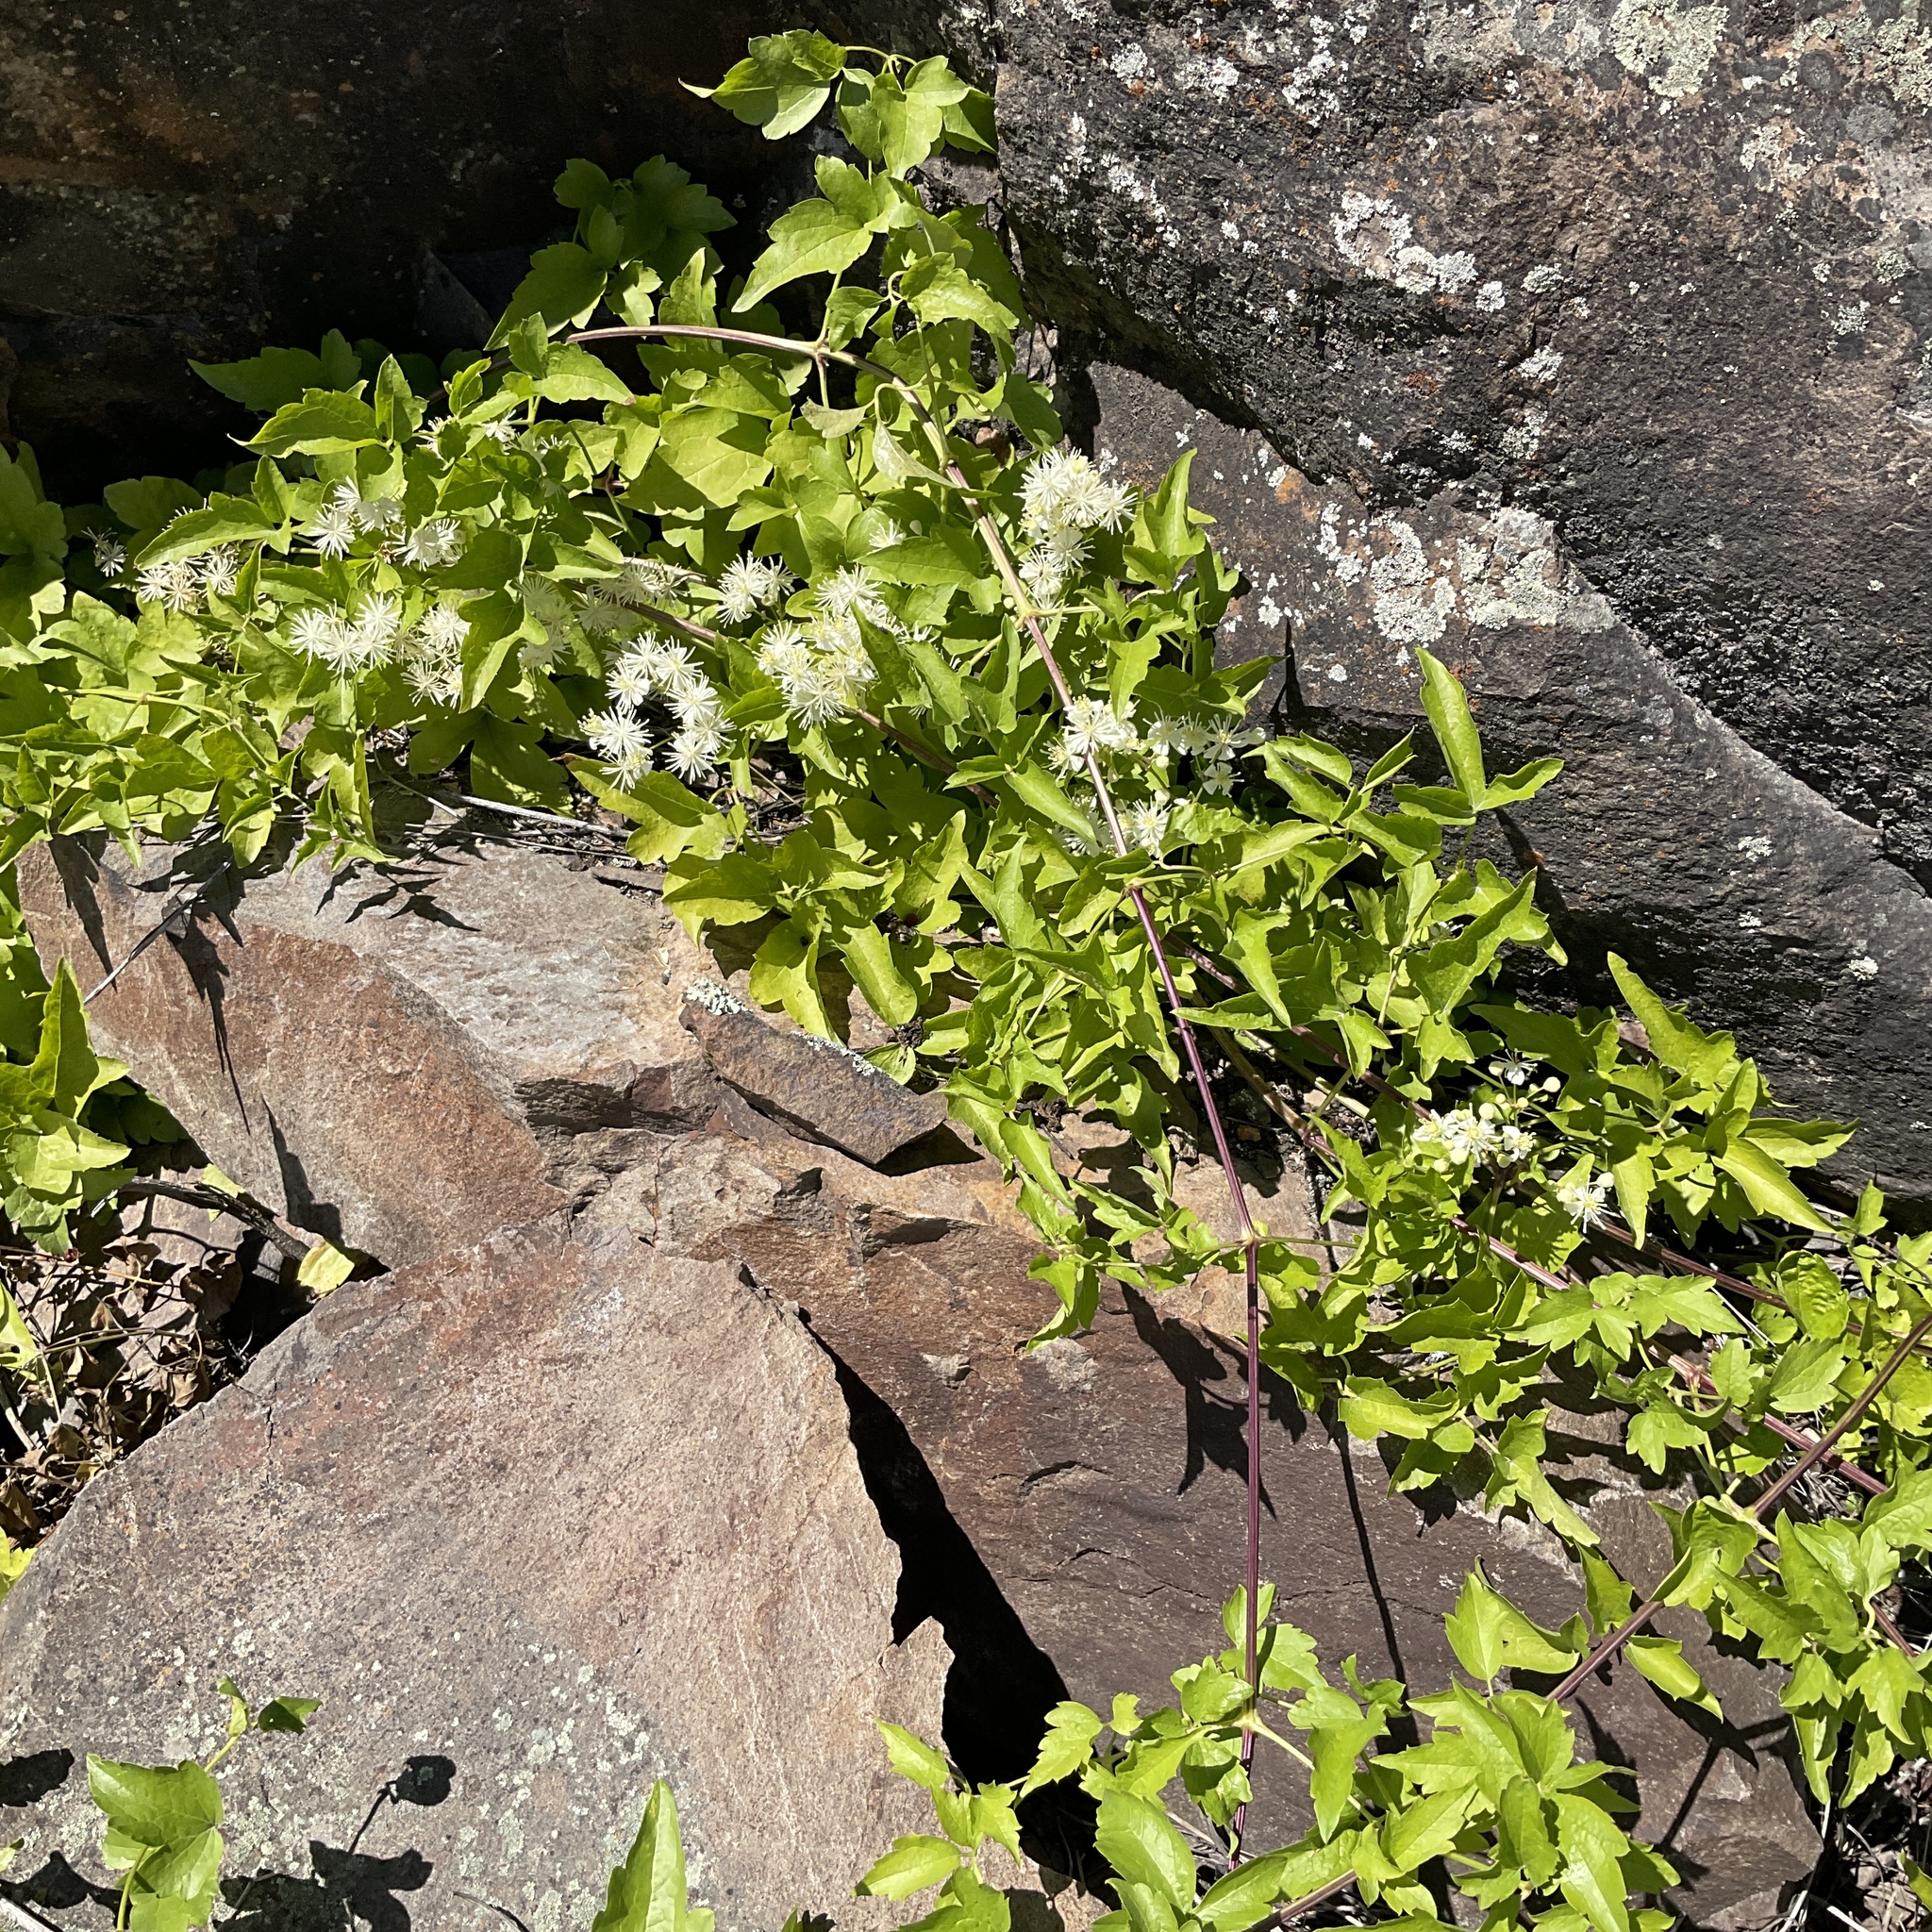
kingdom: Plantae
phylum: Tracheophyta
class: Magnoliopsida
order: Ranunculales
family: Ranunculaceae
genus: Clematis
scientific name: Clematis ligusticifolia
